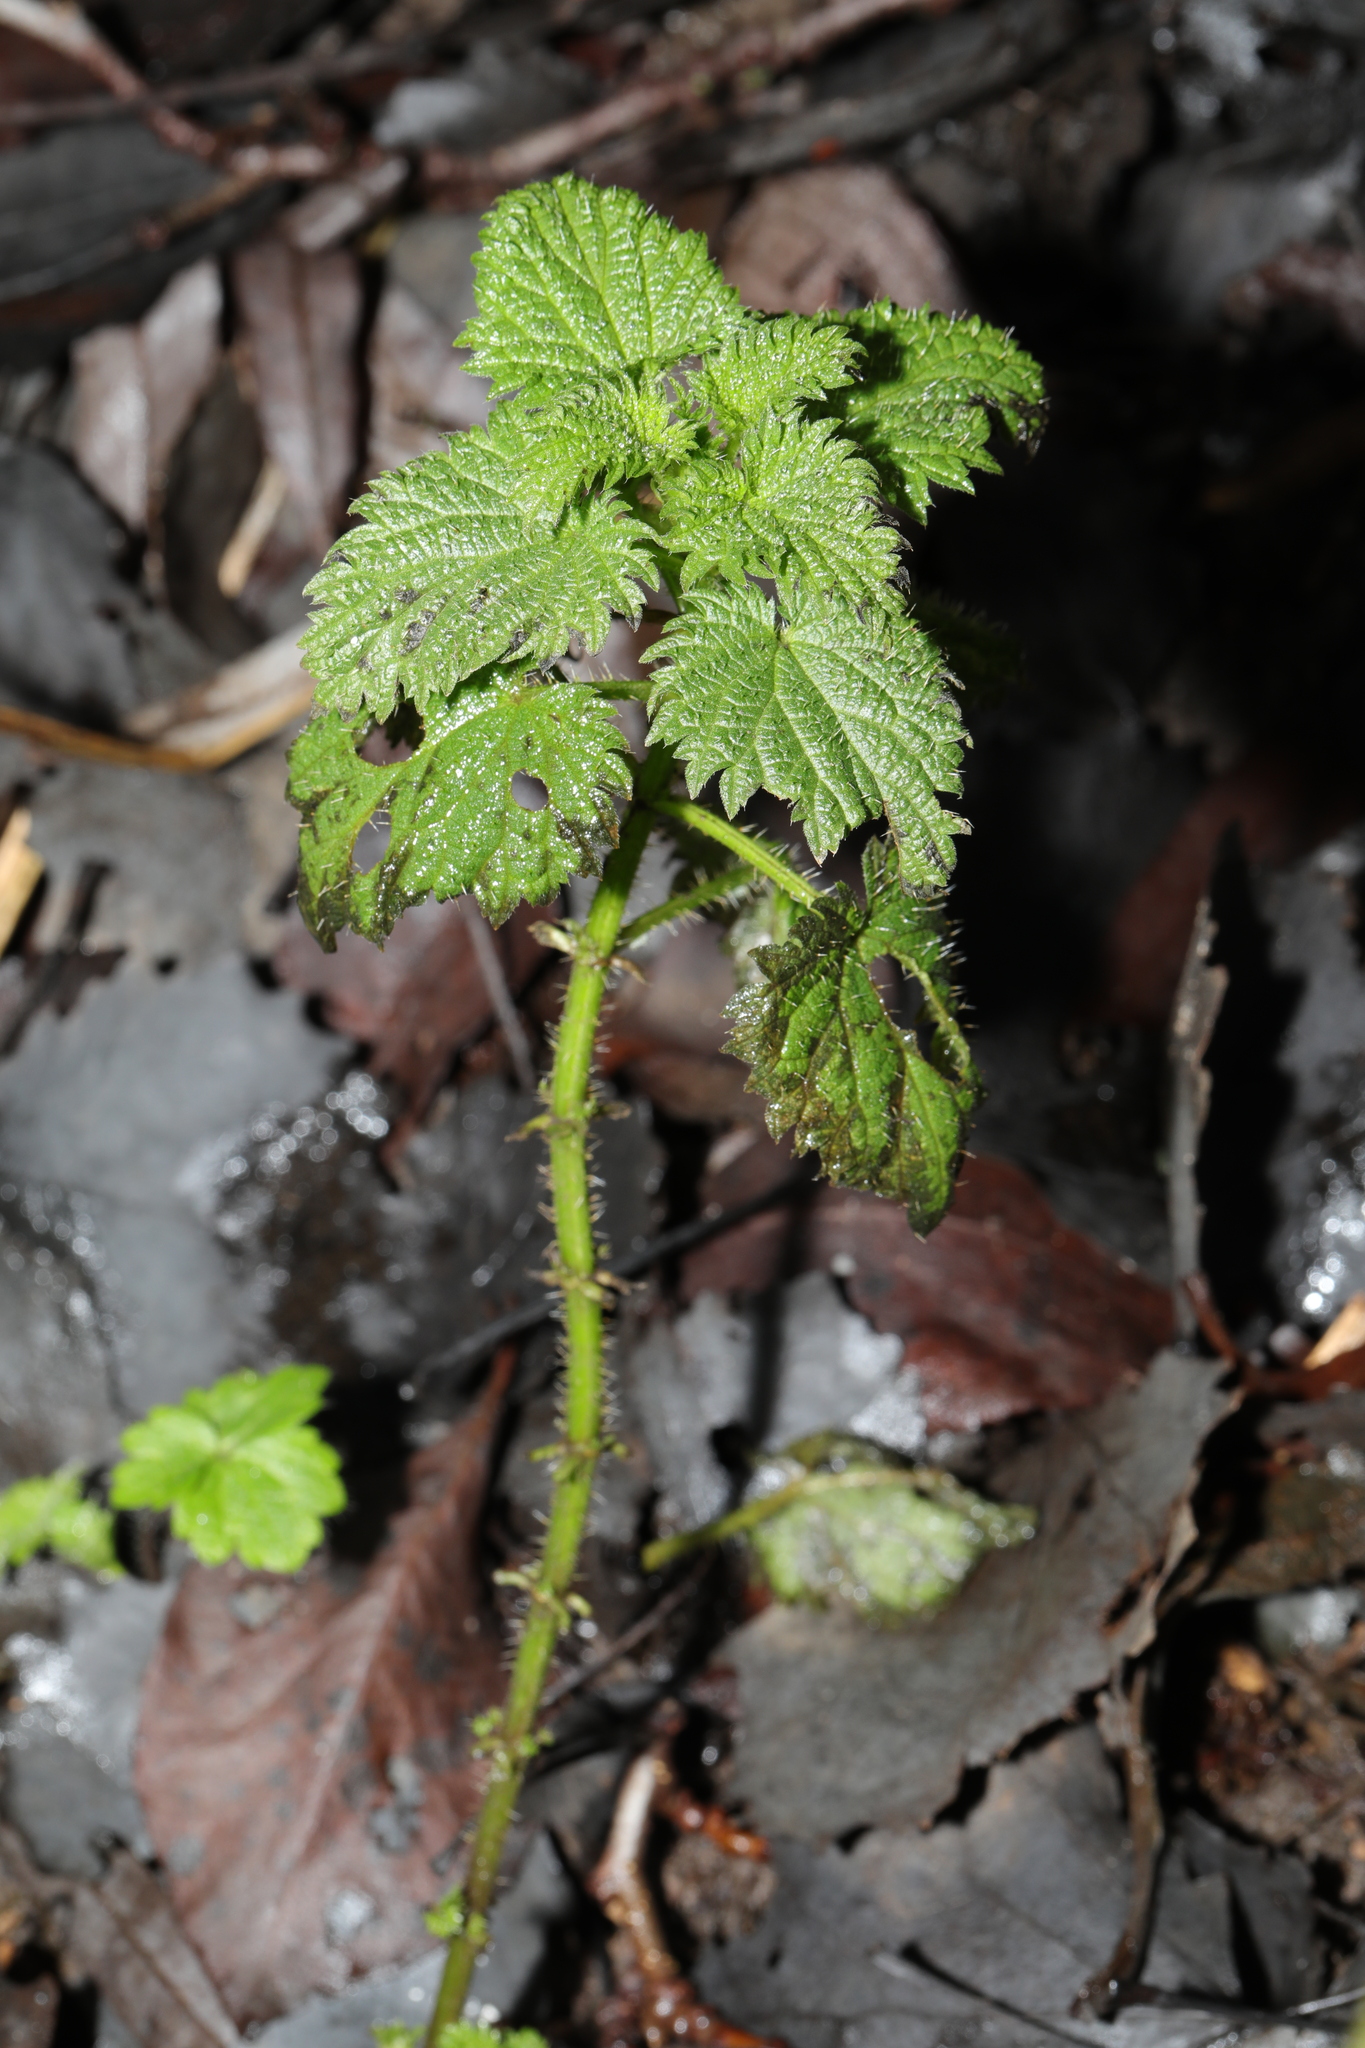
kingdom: Plantae
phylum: Tracheophyta
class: Magnoliopsida
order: Rosales
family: Urticaceae
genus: Urtica
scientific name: Urtica dioica
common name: Common nettle
